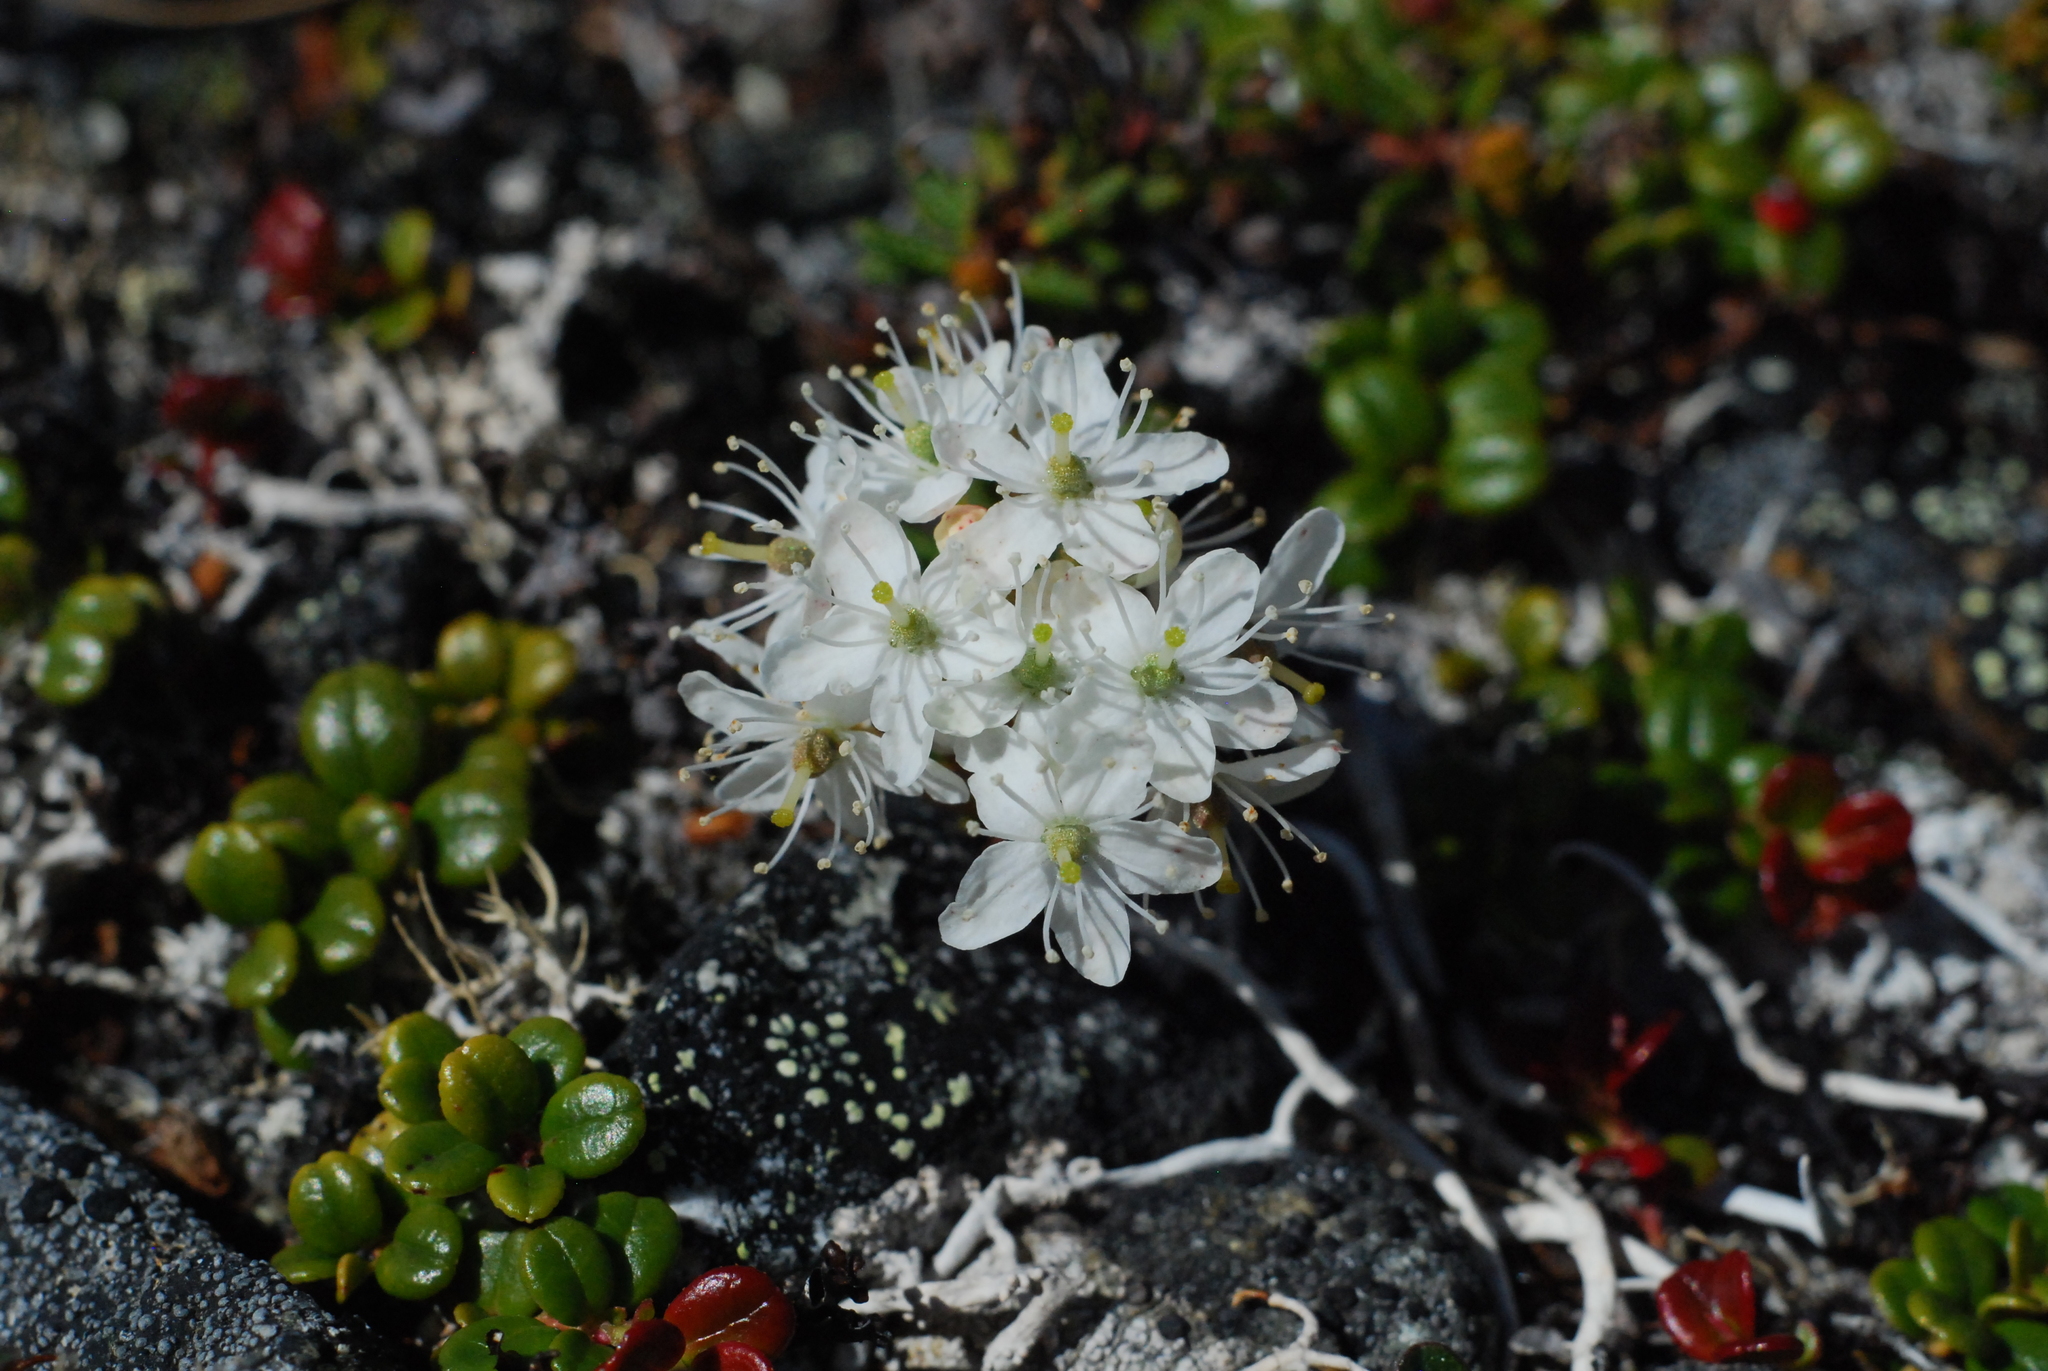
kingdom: Plantae
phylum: Tracheophyta
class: Magnoliopsida
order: Ericales
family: Ericaceae
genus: Rhododendron
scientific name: Rhododendron tomentosum
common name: Marsh labrador tea
